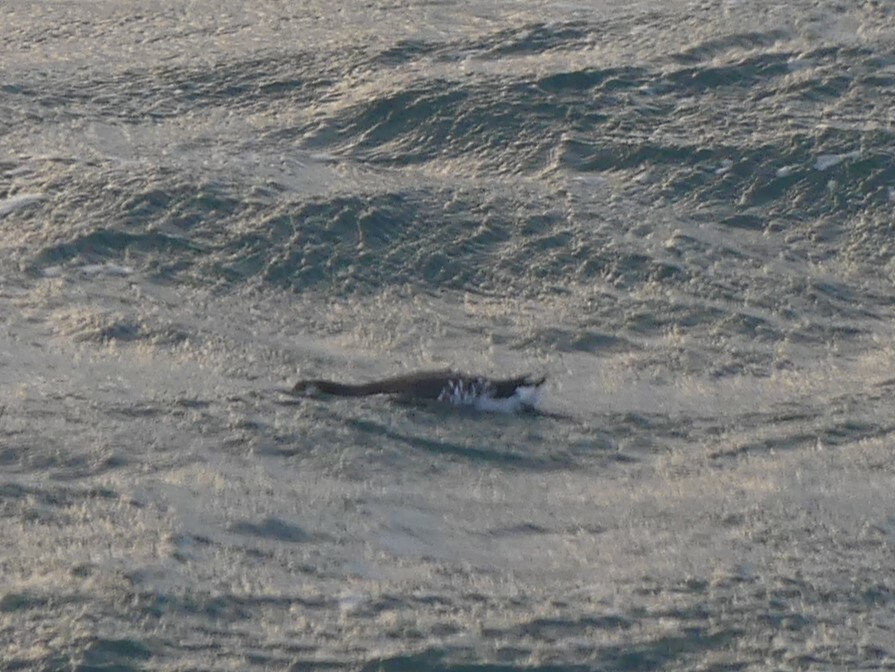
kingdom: Animalia
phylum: Chordata
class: Aves
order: Charadriiformes
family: Alcidae
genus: Uria
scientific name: Uria aalge
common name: Common murre
